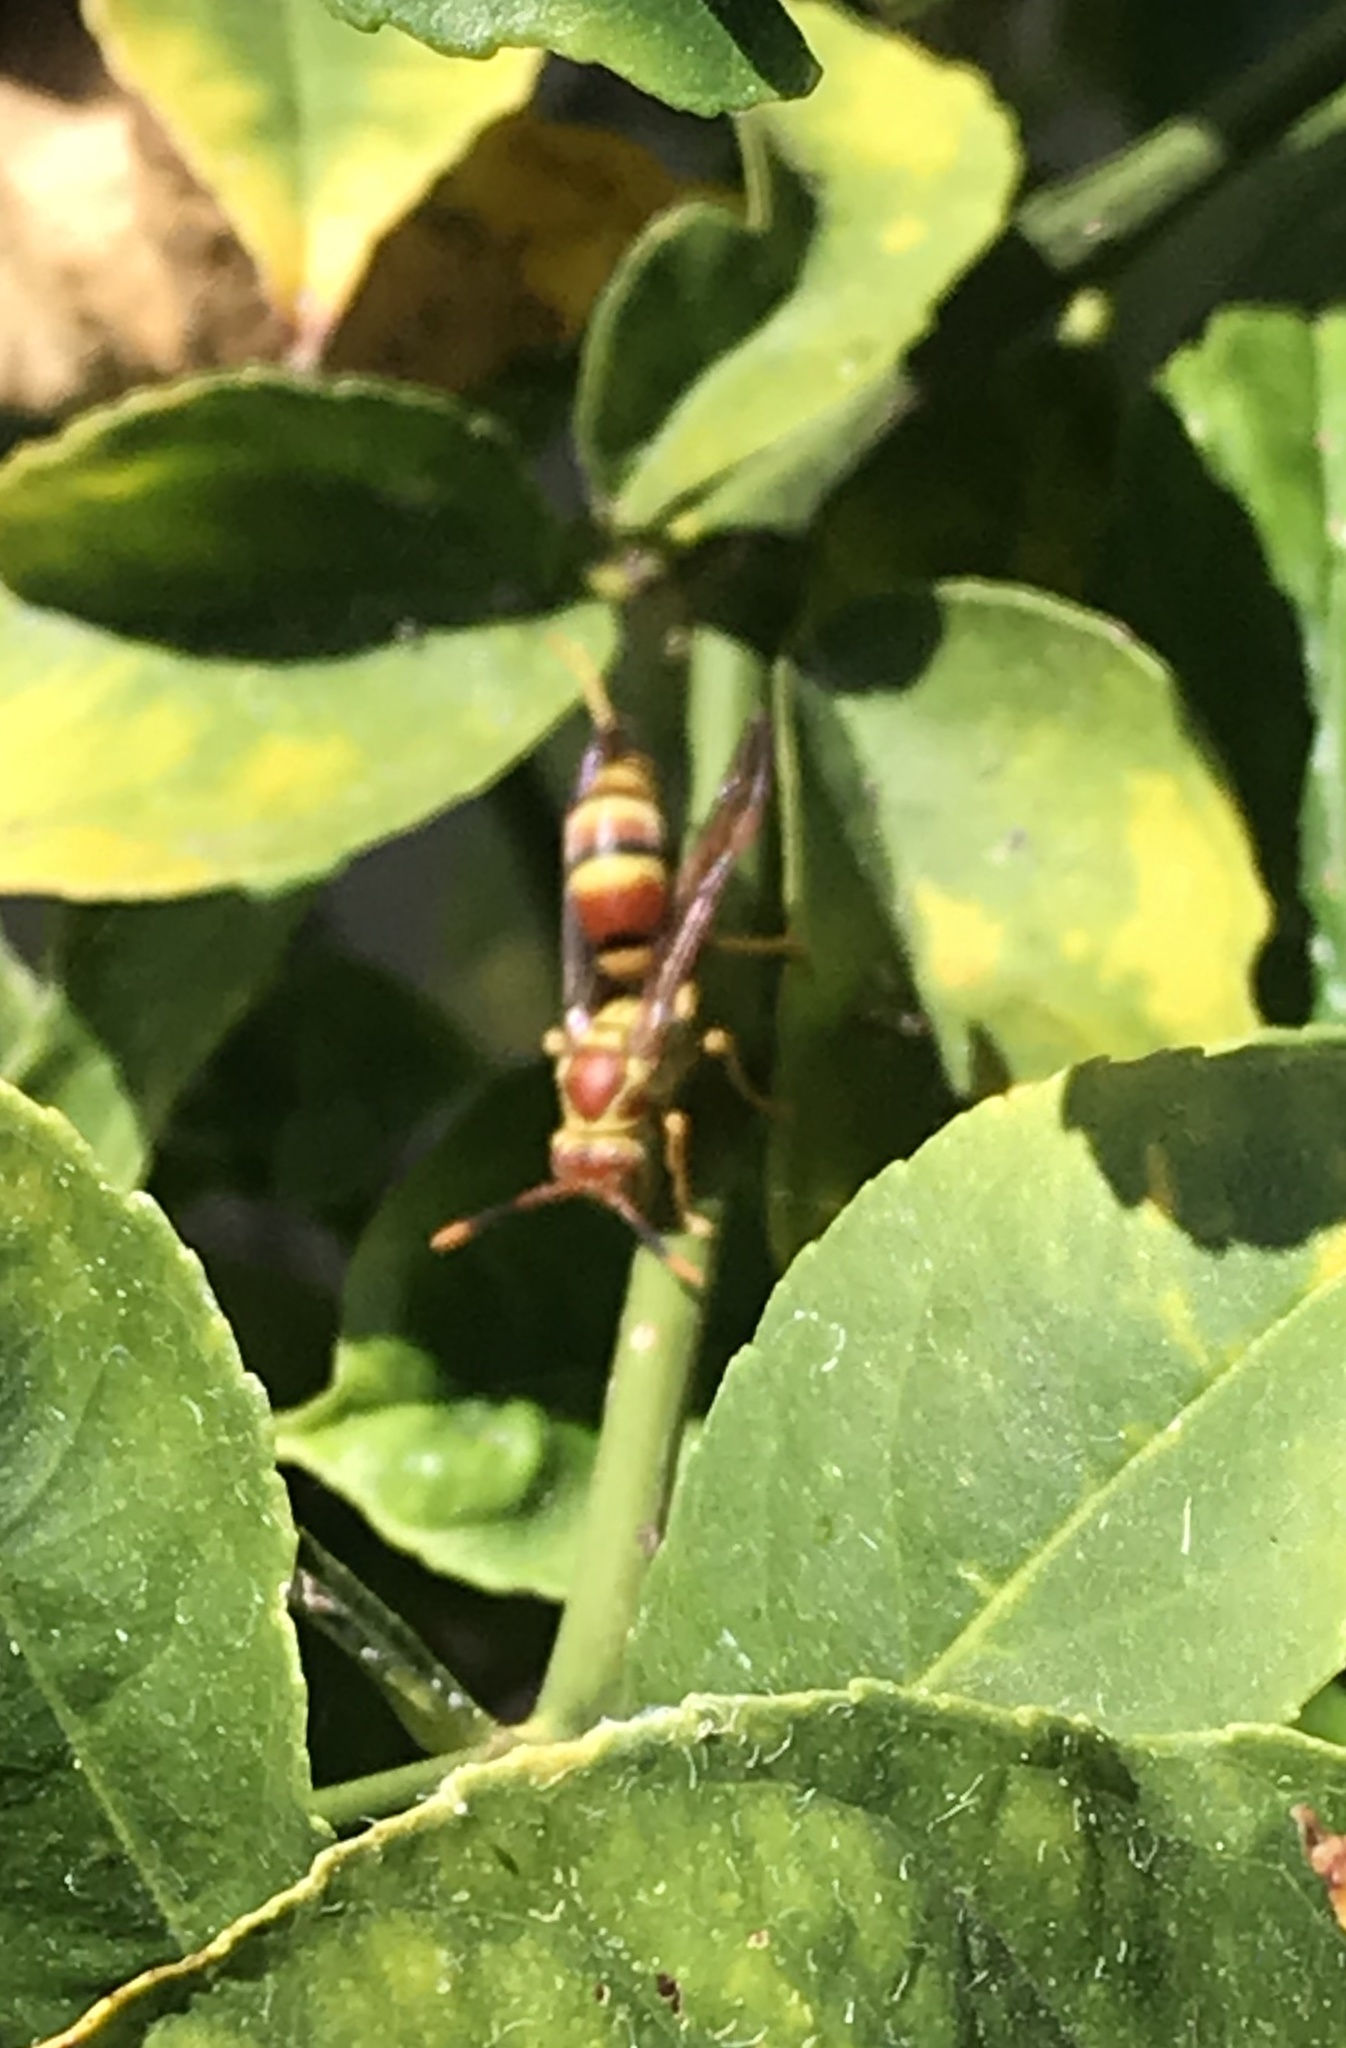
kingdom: Animalia
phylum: Arthropoda
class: Insecta
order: Hymenoptera
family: Eumenidae
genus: Polistes
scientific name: Polistes exclamans
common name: Paper wasp
